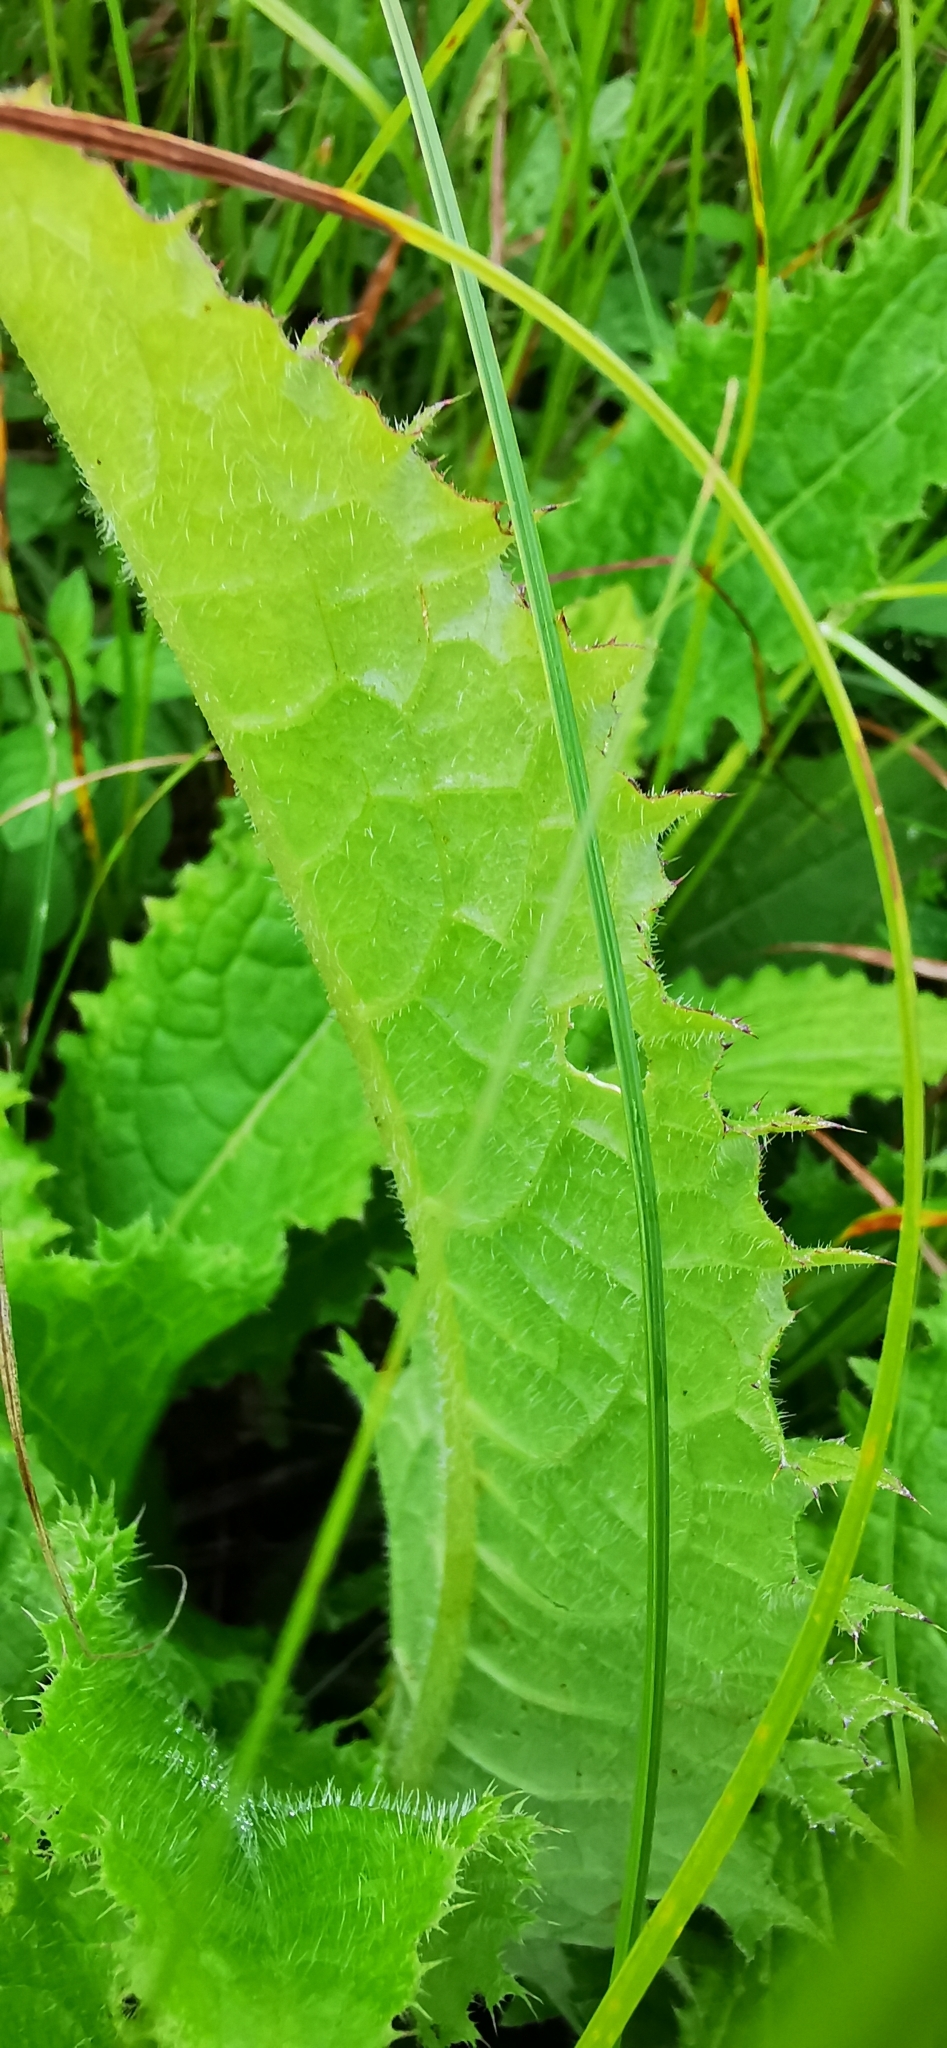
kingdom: Plantae
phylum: Tracheophyta
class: Magnoliopsida
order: Asterales
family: Asteraceae
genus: Cirsium
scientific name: Cirsium rivulare
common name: Brook thistle
